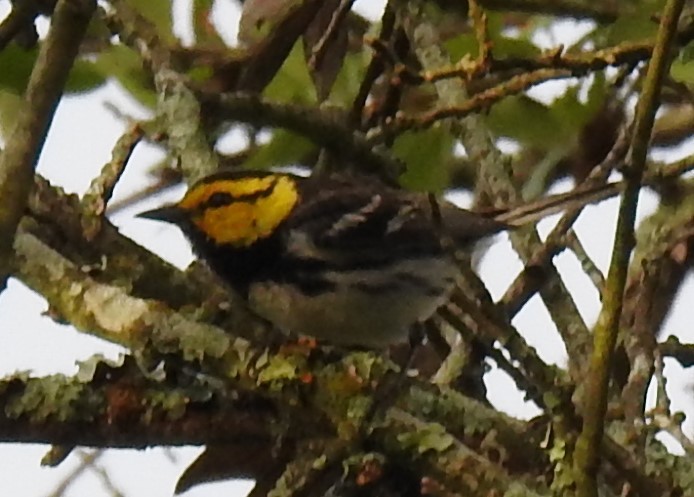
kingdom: Animalia
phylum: Chordata
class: Aves
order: Passeriformes
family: Parulidae
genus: Setophaga
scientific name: Setophaga chrysoparia
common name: Golden-cheeked warbler
